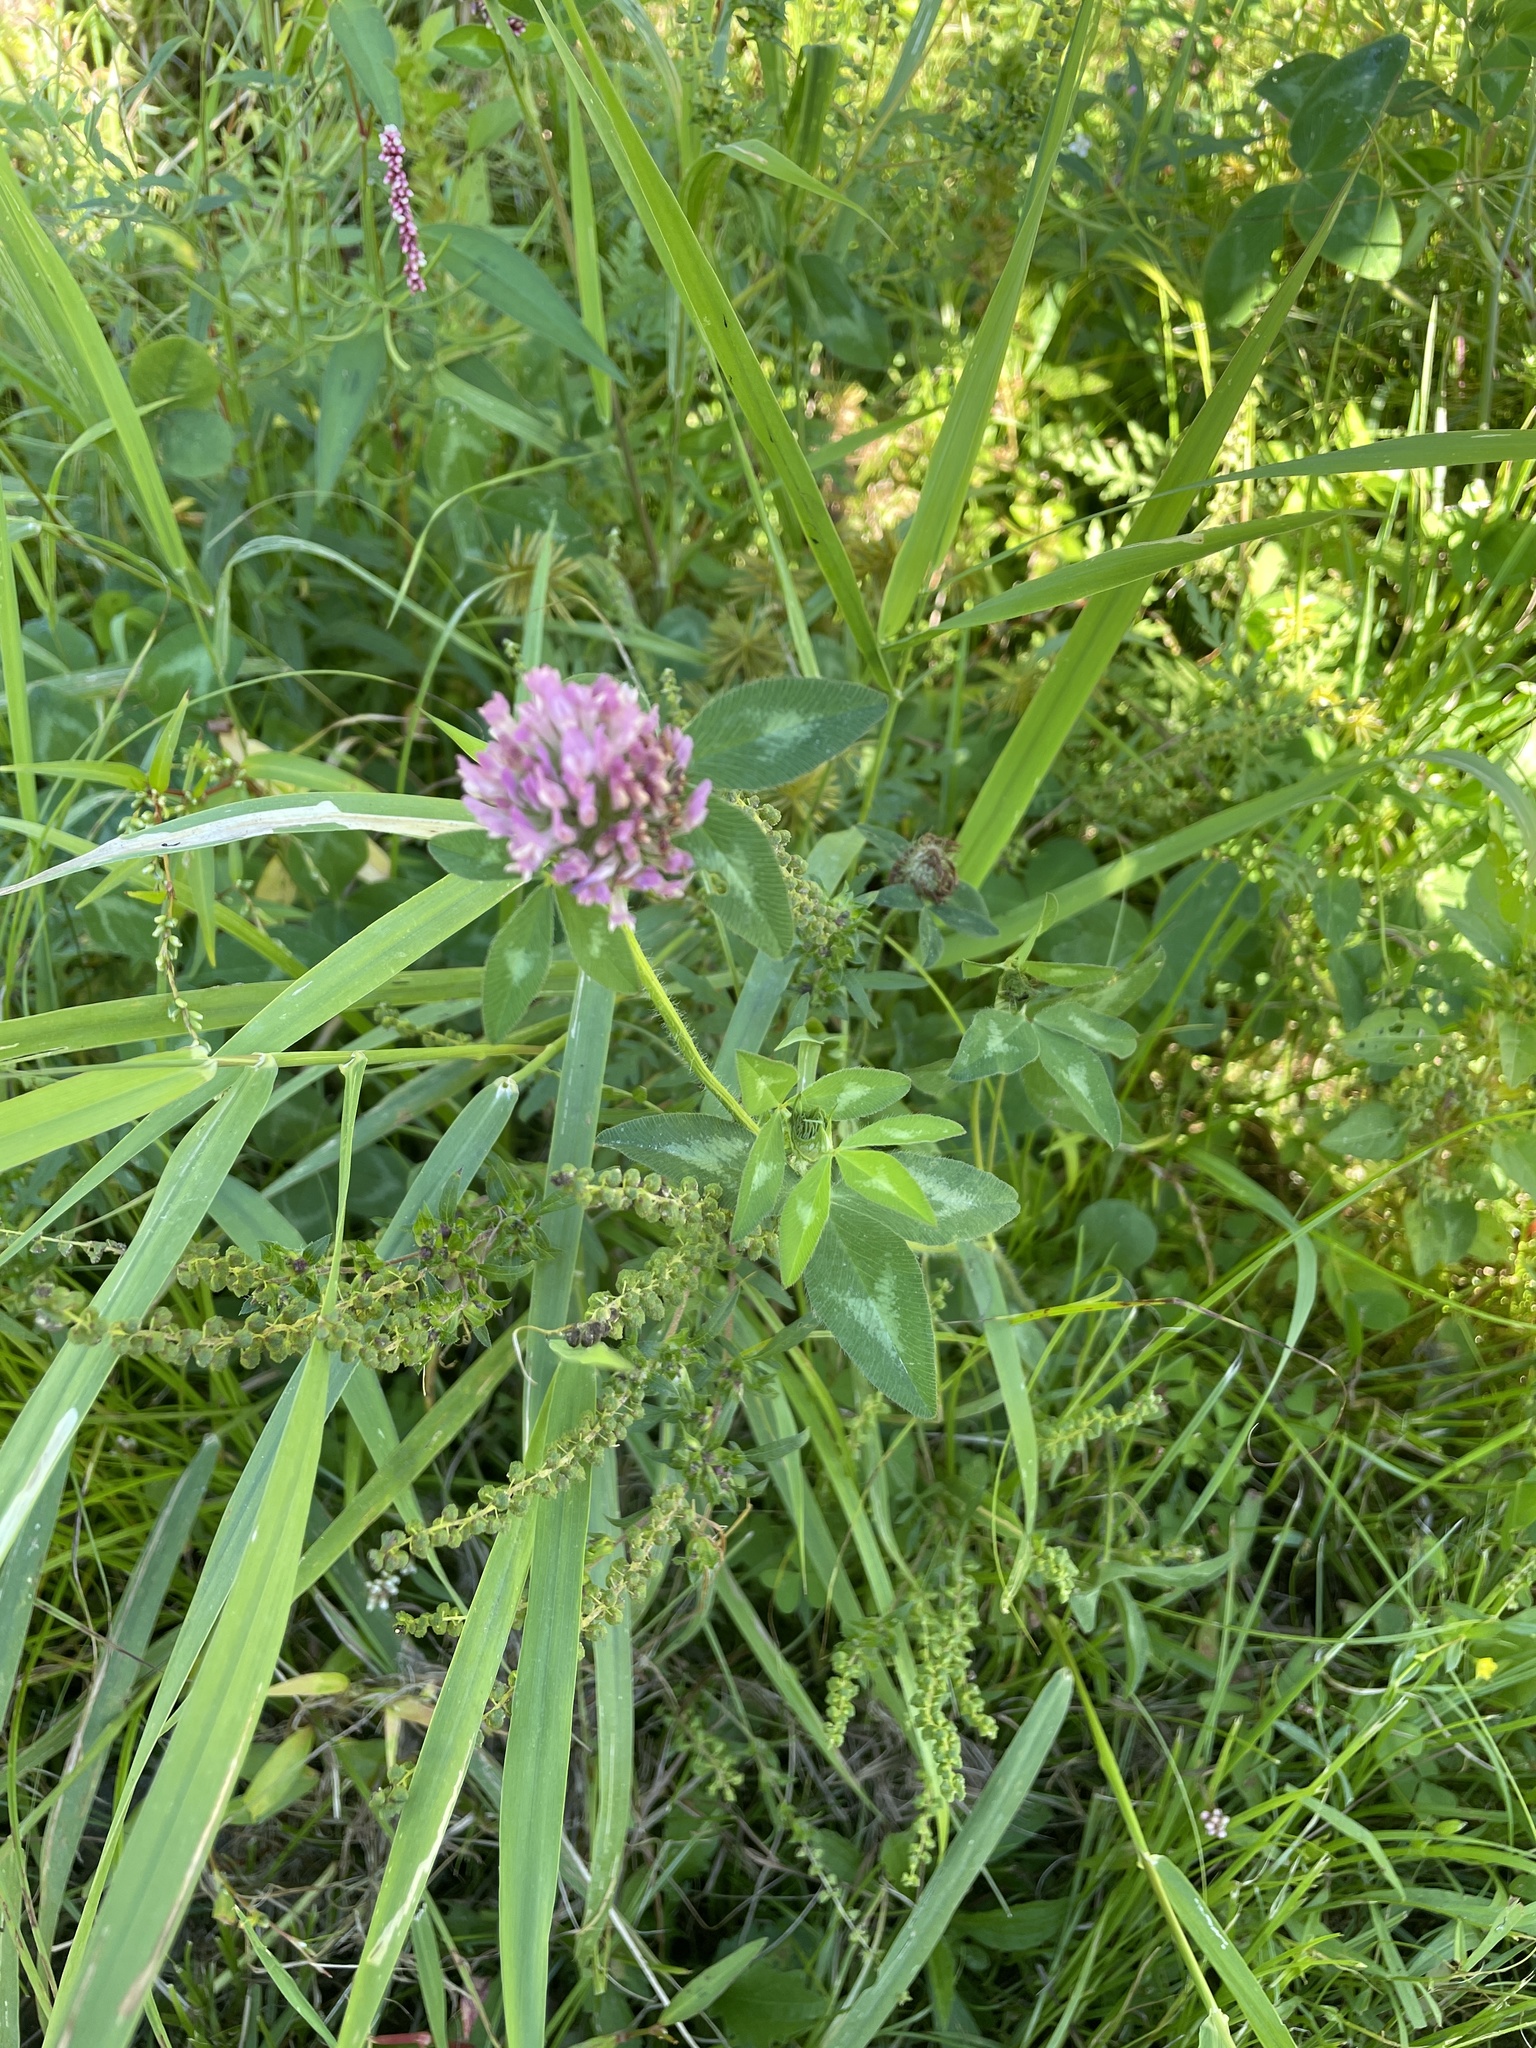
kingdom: Plantae
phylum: Tracheophyta
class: Magnoliopsida
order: Fabales
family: Fabaceae
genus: Trifolium
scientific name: Trifolium pratense
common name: Red clover
